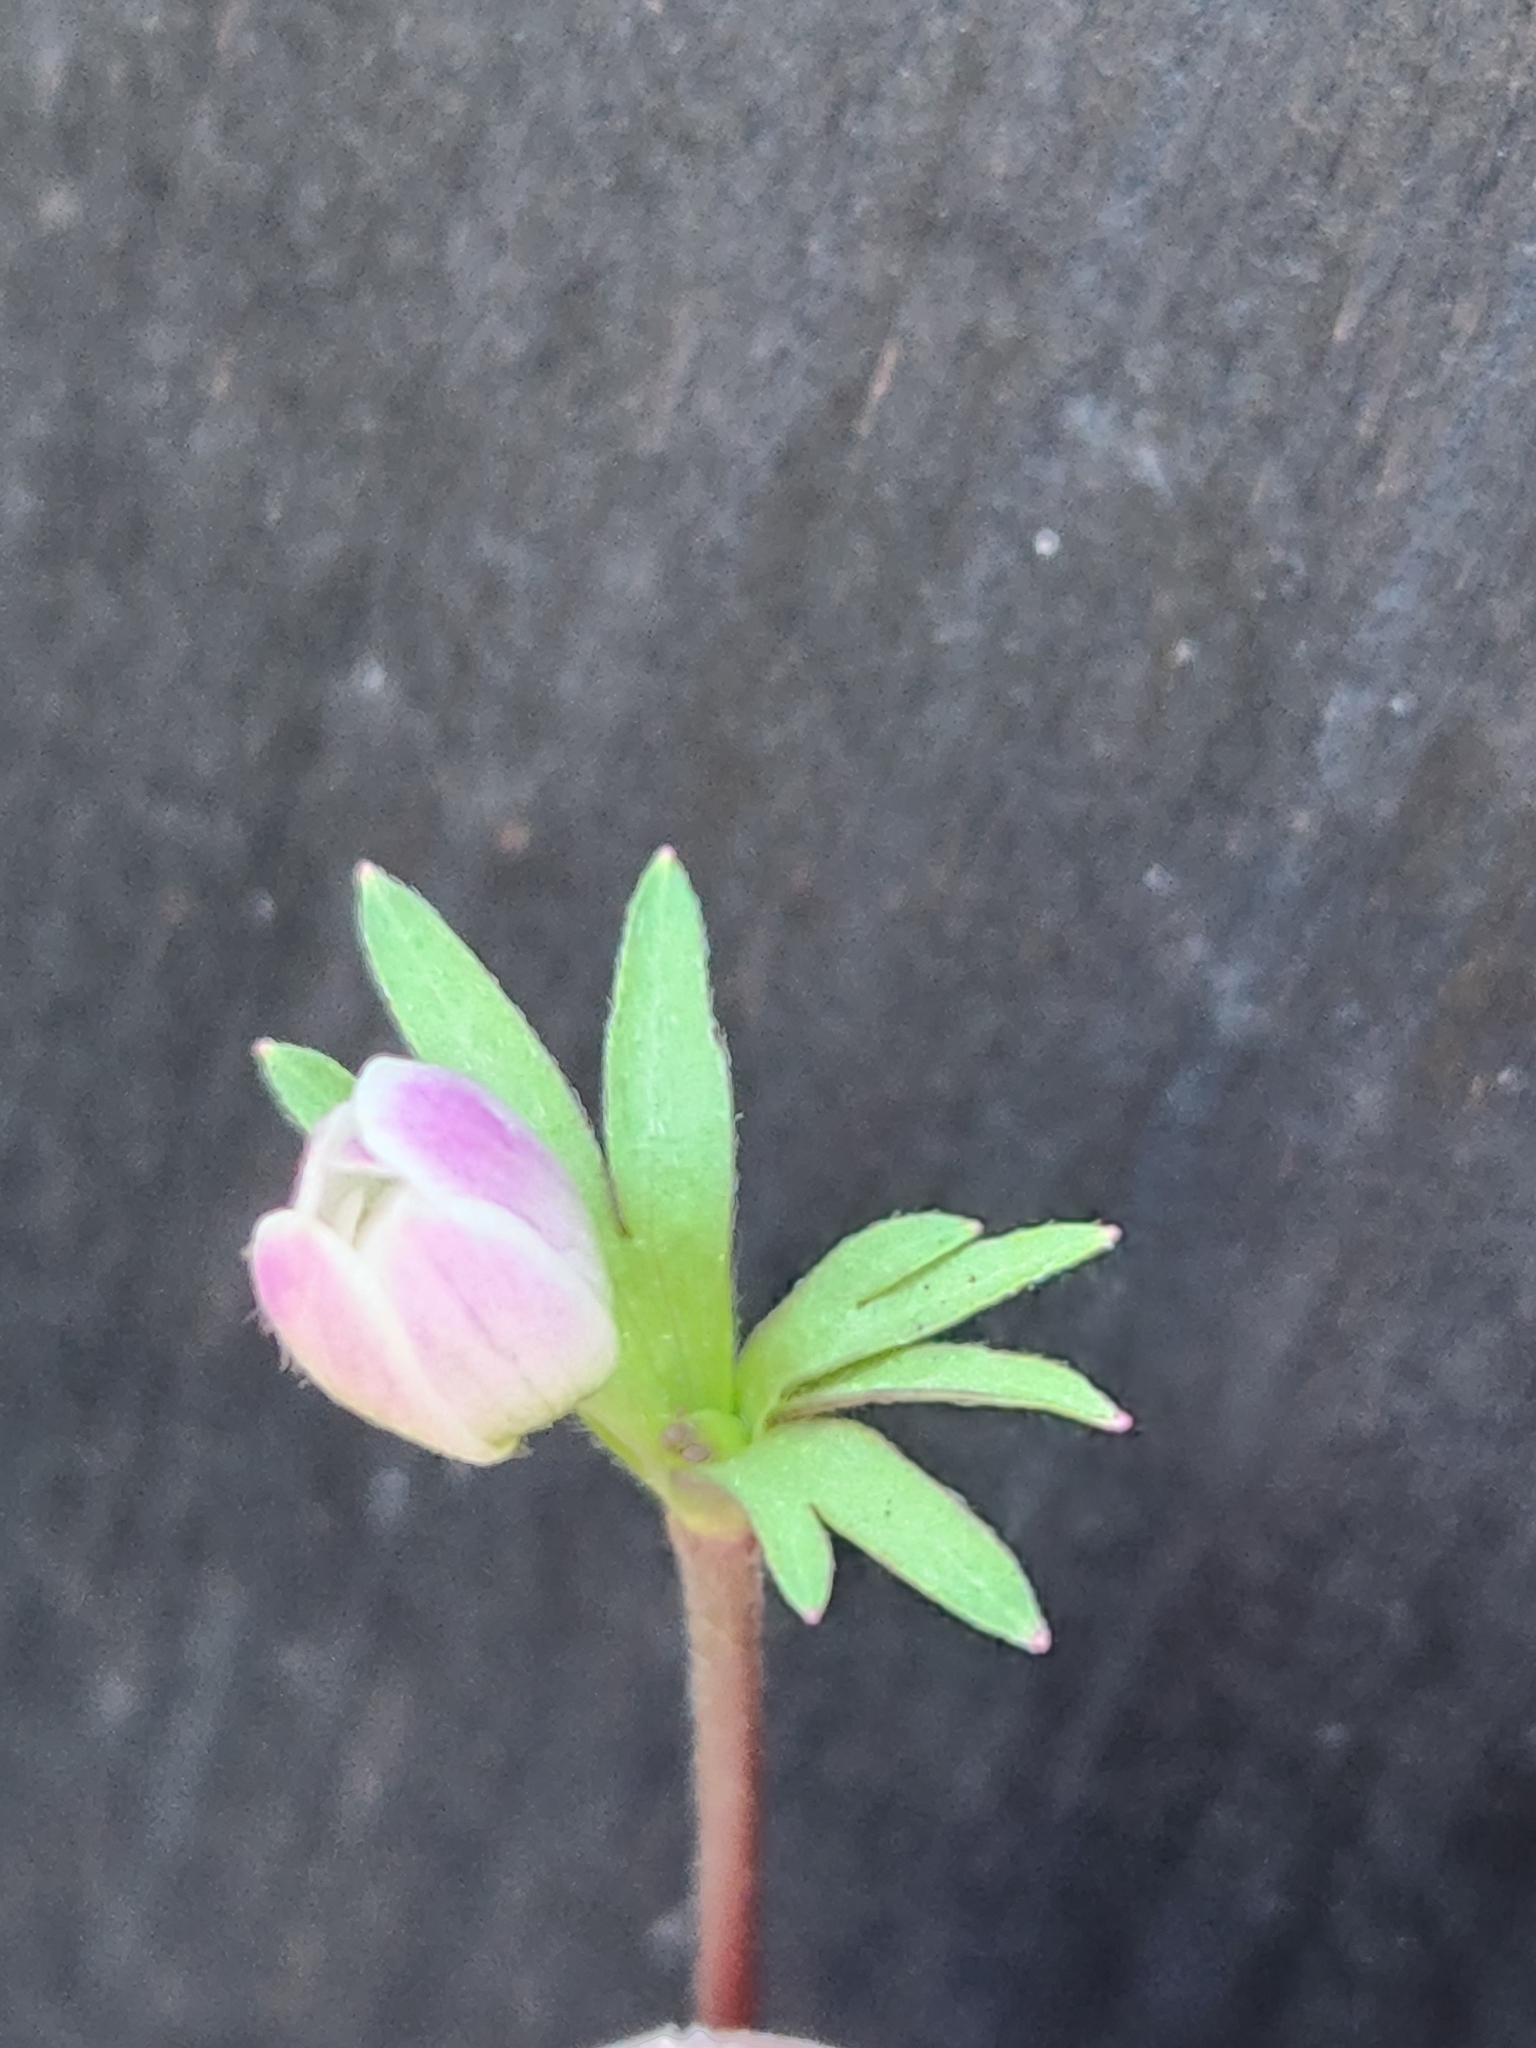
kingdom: Plantae
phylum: Tracheophyta
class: Magnoliopsida
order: Ranunculales
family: Ranunculaceae
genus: Anemone
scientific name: Anemone edwardsiana
